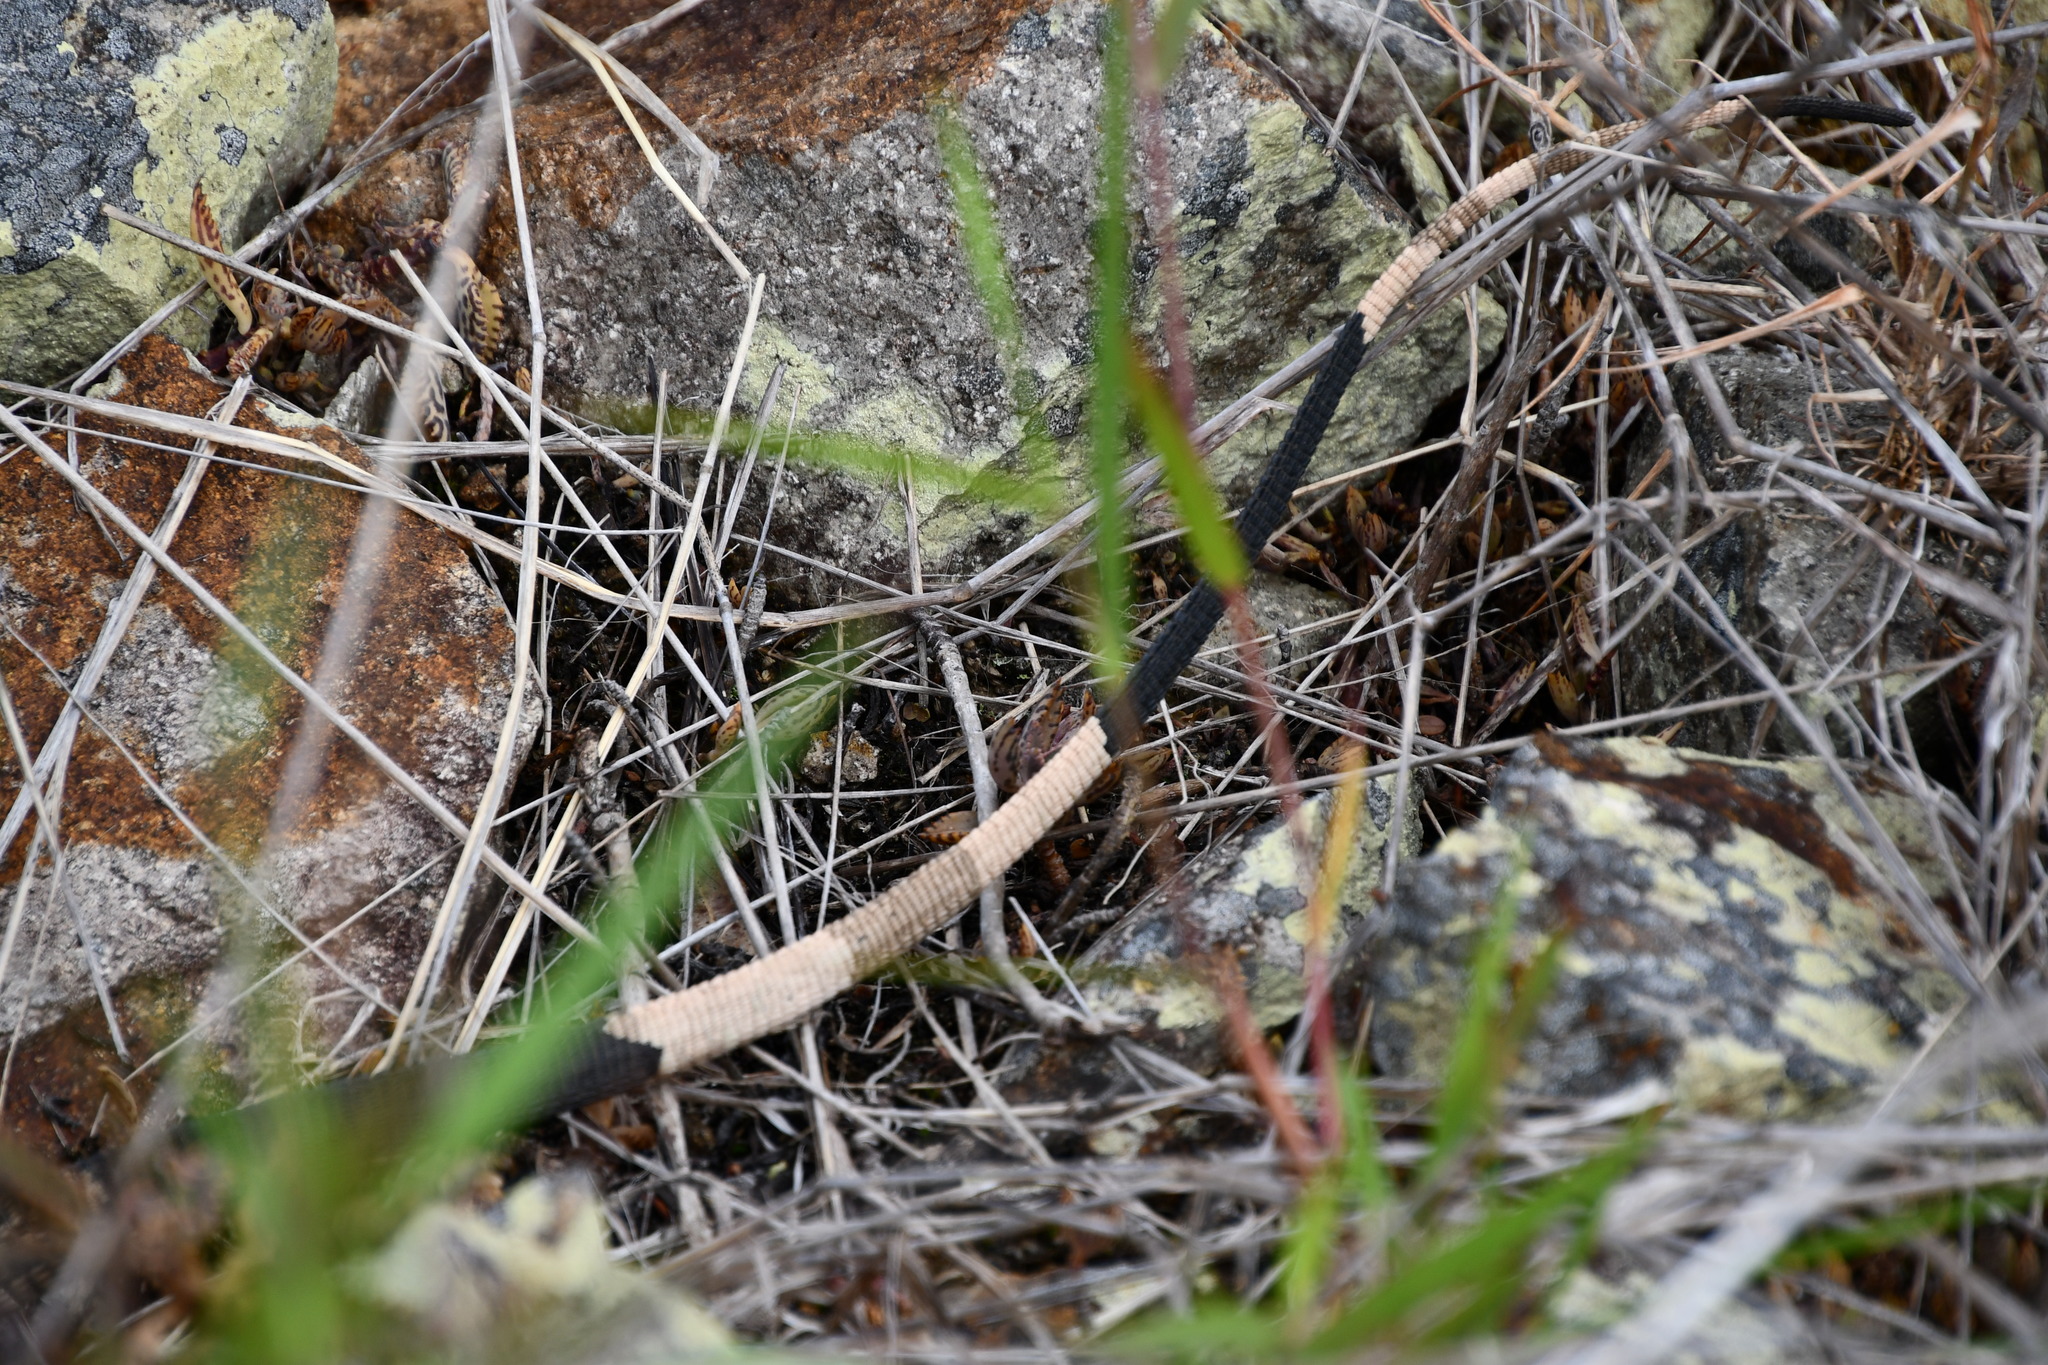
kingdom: Animalia
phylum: Chordata
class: Squamata
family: Varanidae
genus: Varanus
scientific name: Varanus varius
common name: Lace monitor
